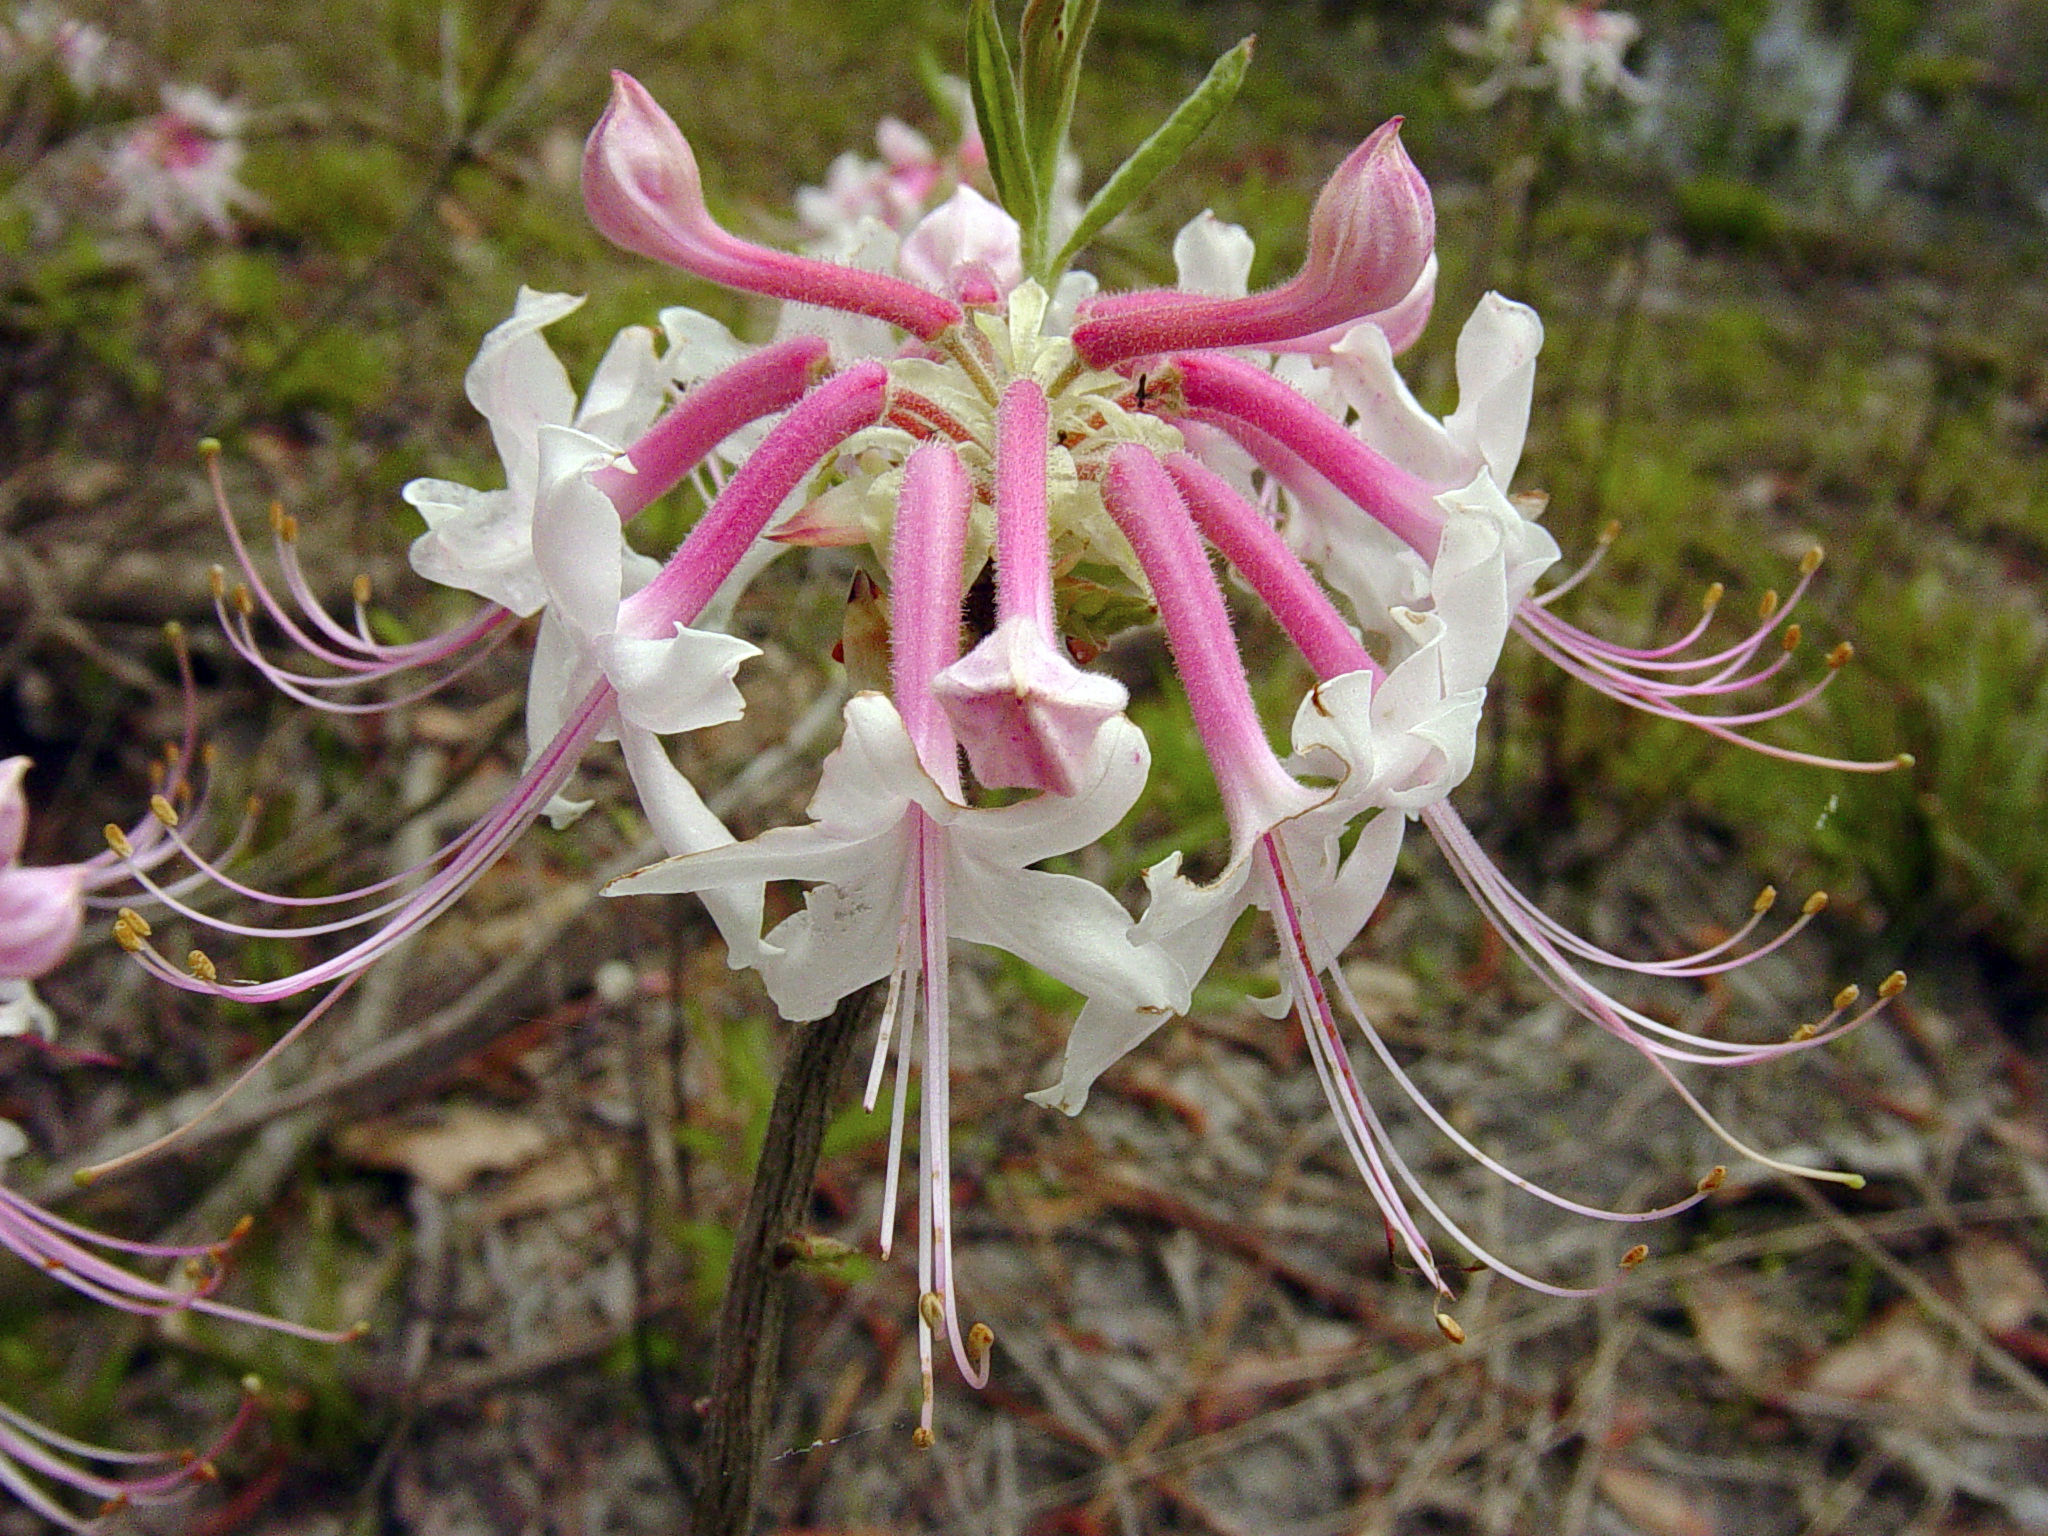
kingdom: Plantae
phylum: Tracheophyta
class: Magnoliopsida
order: Ericales
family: Ericaceae
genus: Rhododendron
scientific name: Rhododendron canescens
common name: Mountain azalea
